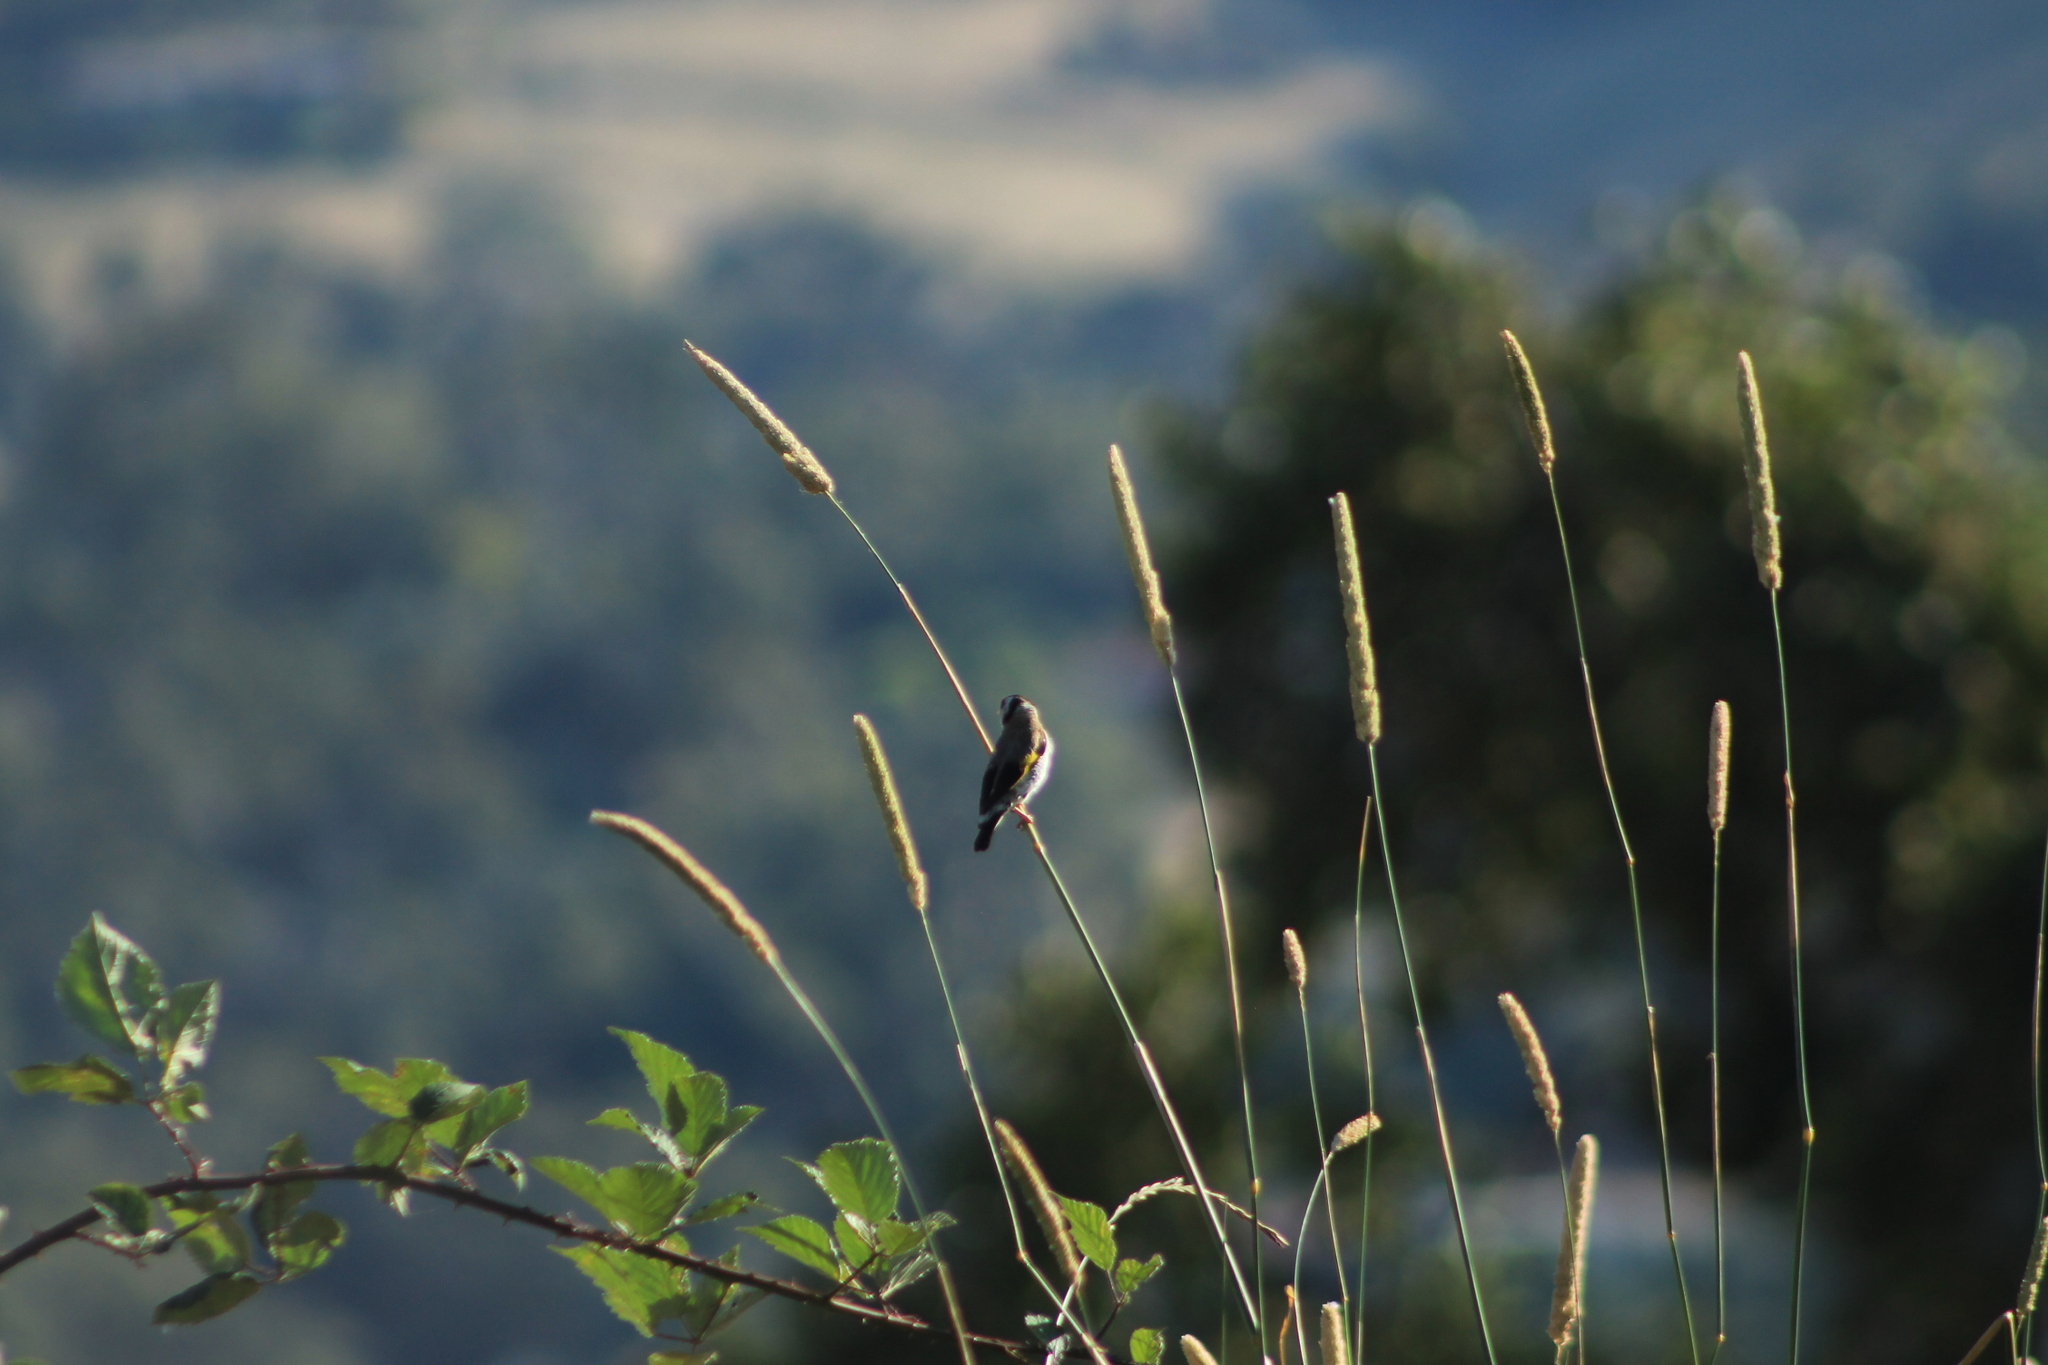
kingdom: Animalia
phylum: Chordata
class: Aves
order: Passeriformes
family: Fringillidae
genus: Carduelis
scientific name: Carduelis carduelis
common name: European goldfinch
